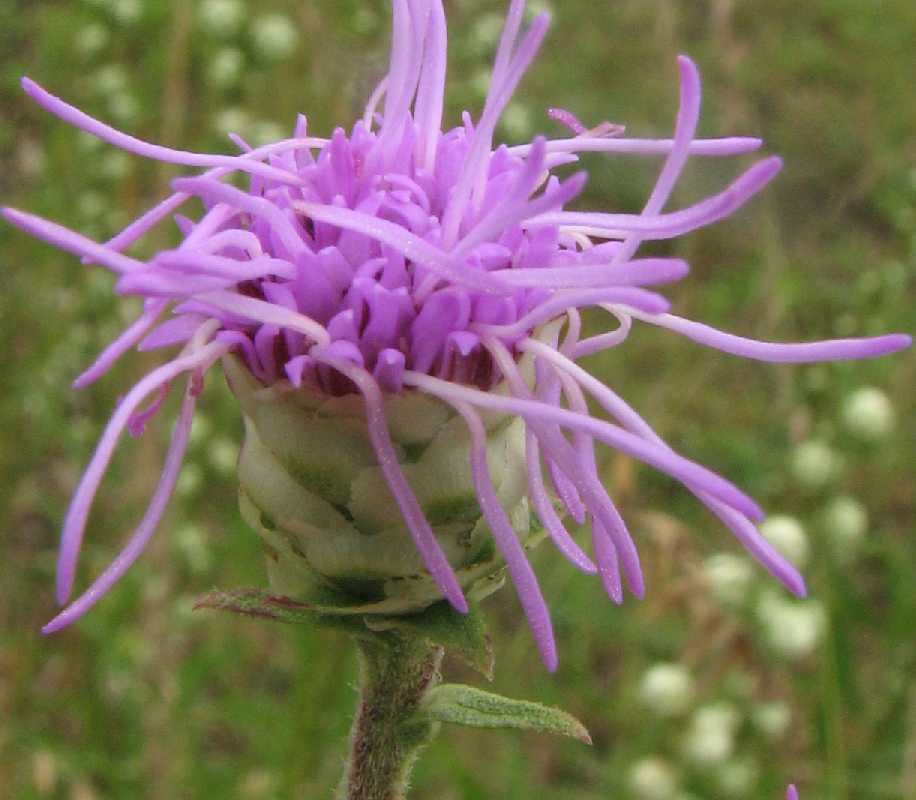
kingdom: Plantae
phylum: Tracheophyta
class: Magnoliopsida
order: Asterales
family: Asteraceae
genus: Liatris
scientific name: Liatris aspera
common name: Lacerate blazing-star
